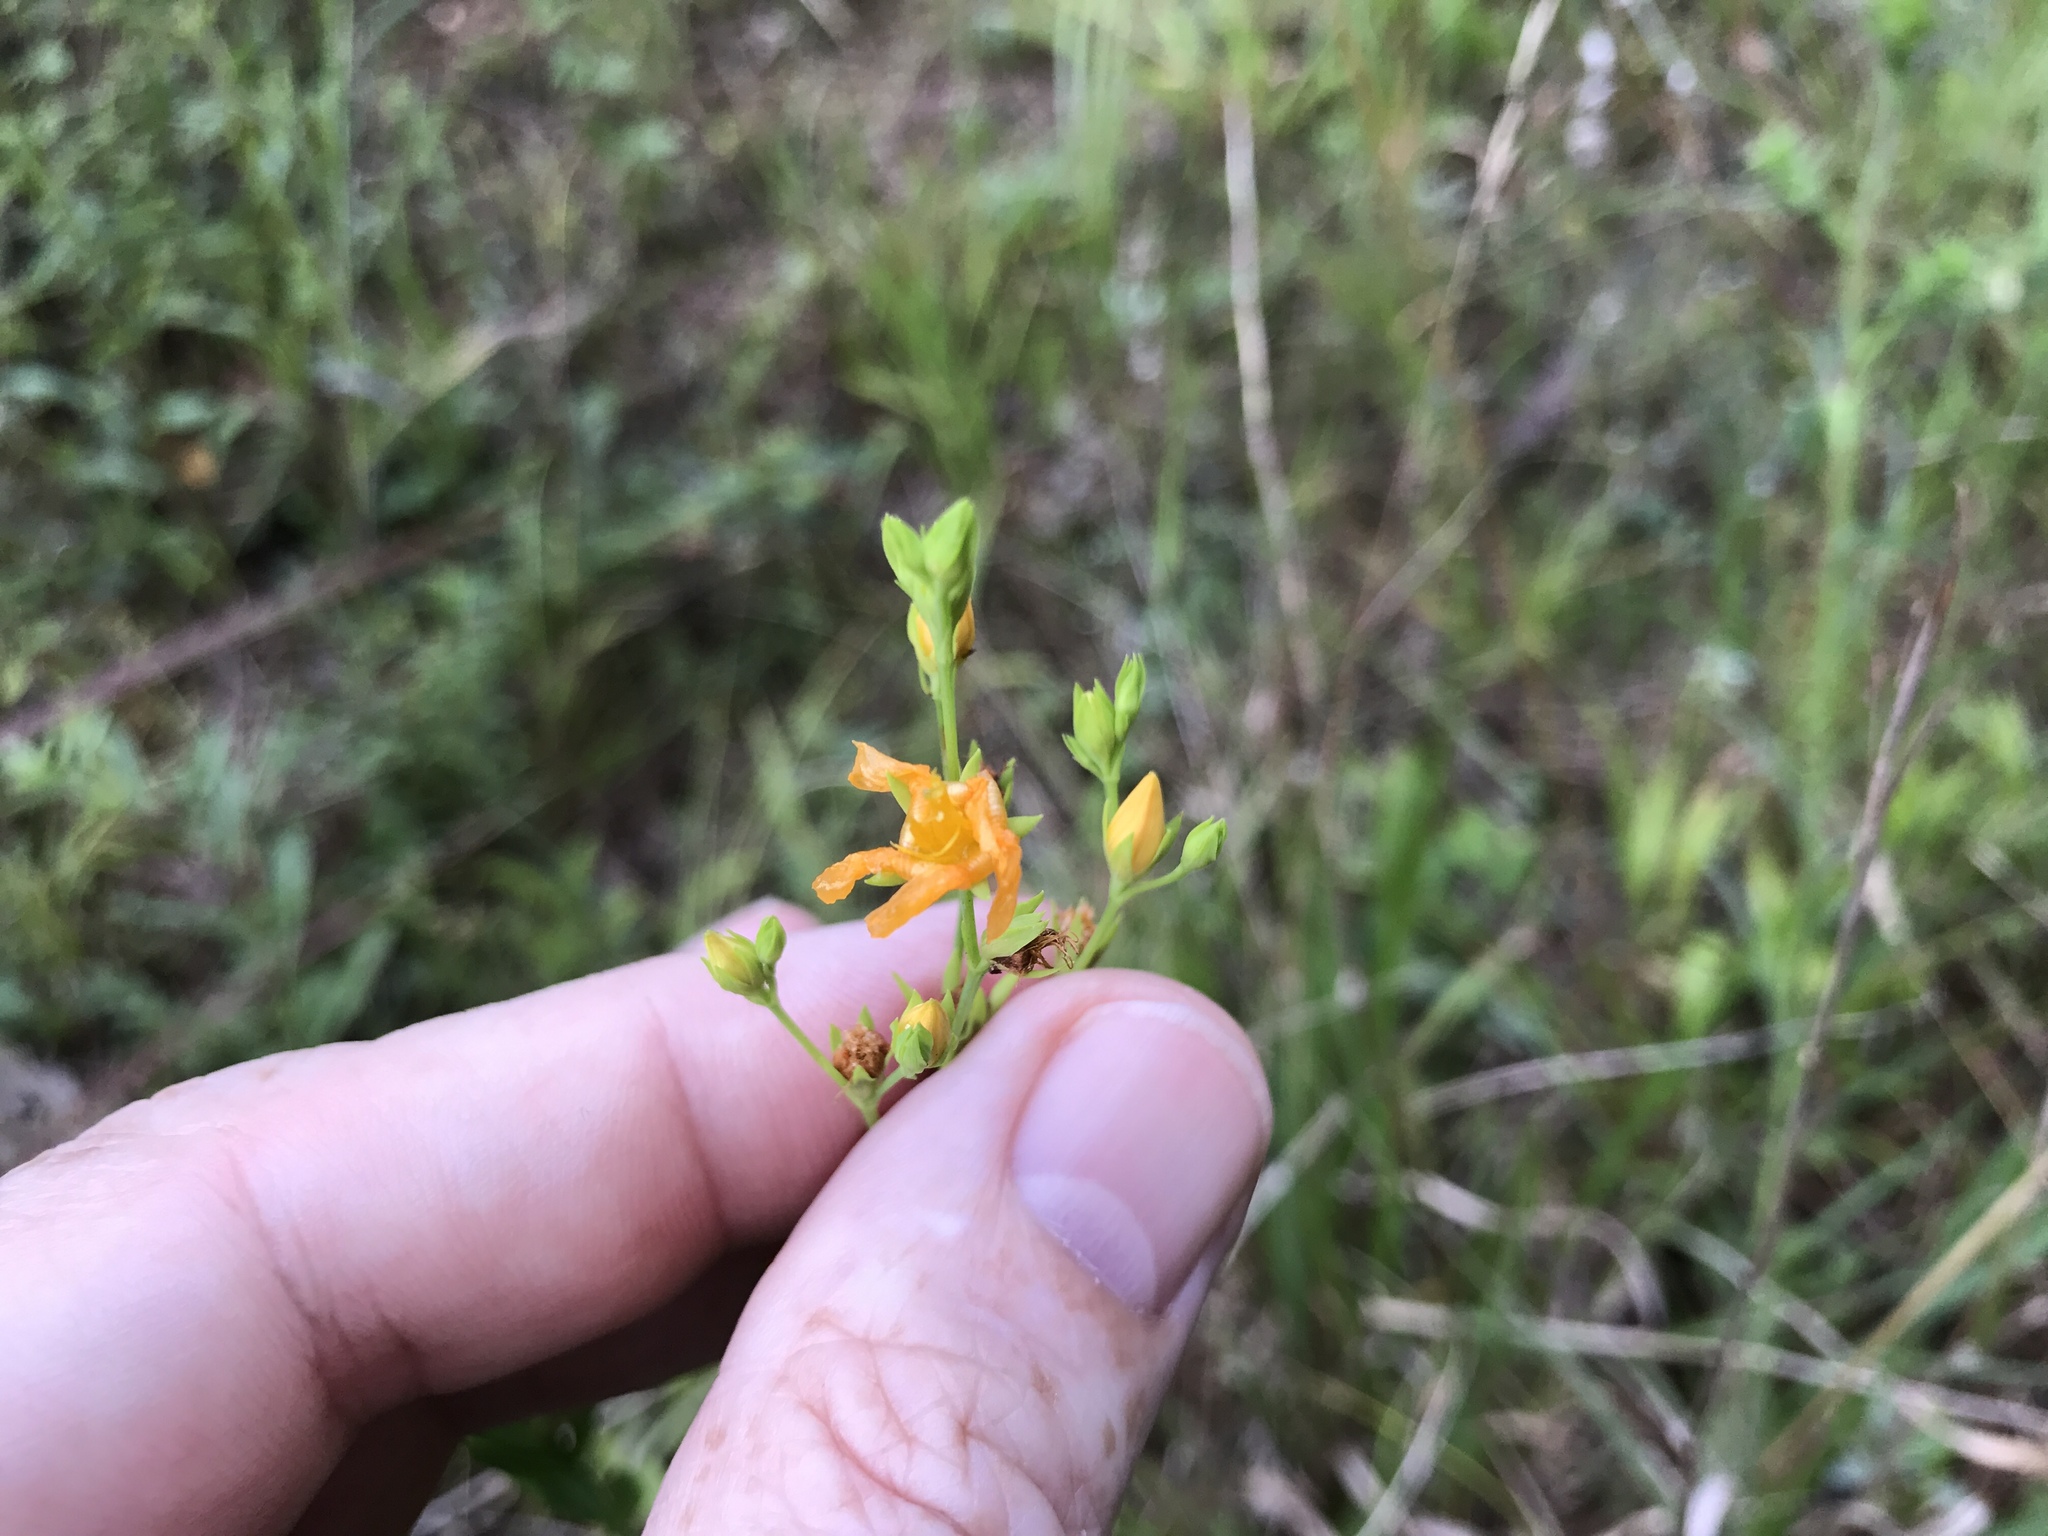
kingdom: Plantae
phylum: Tracheophyta
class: Magnoliopsida
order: Malpighiales
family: Hypericaceae
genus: Hypericum
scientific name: Hypericum virgatum
